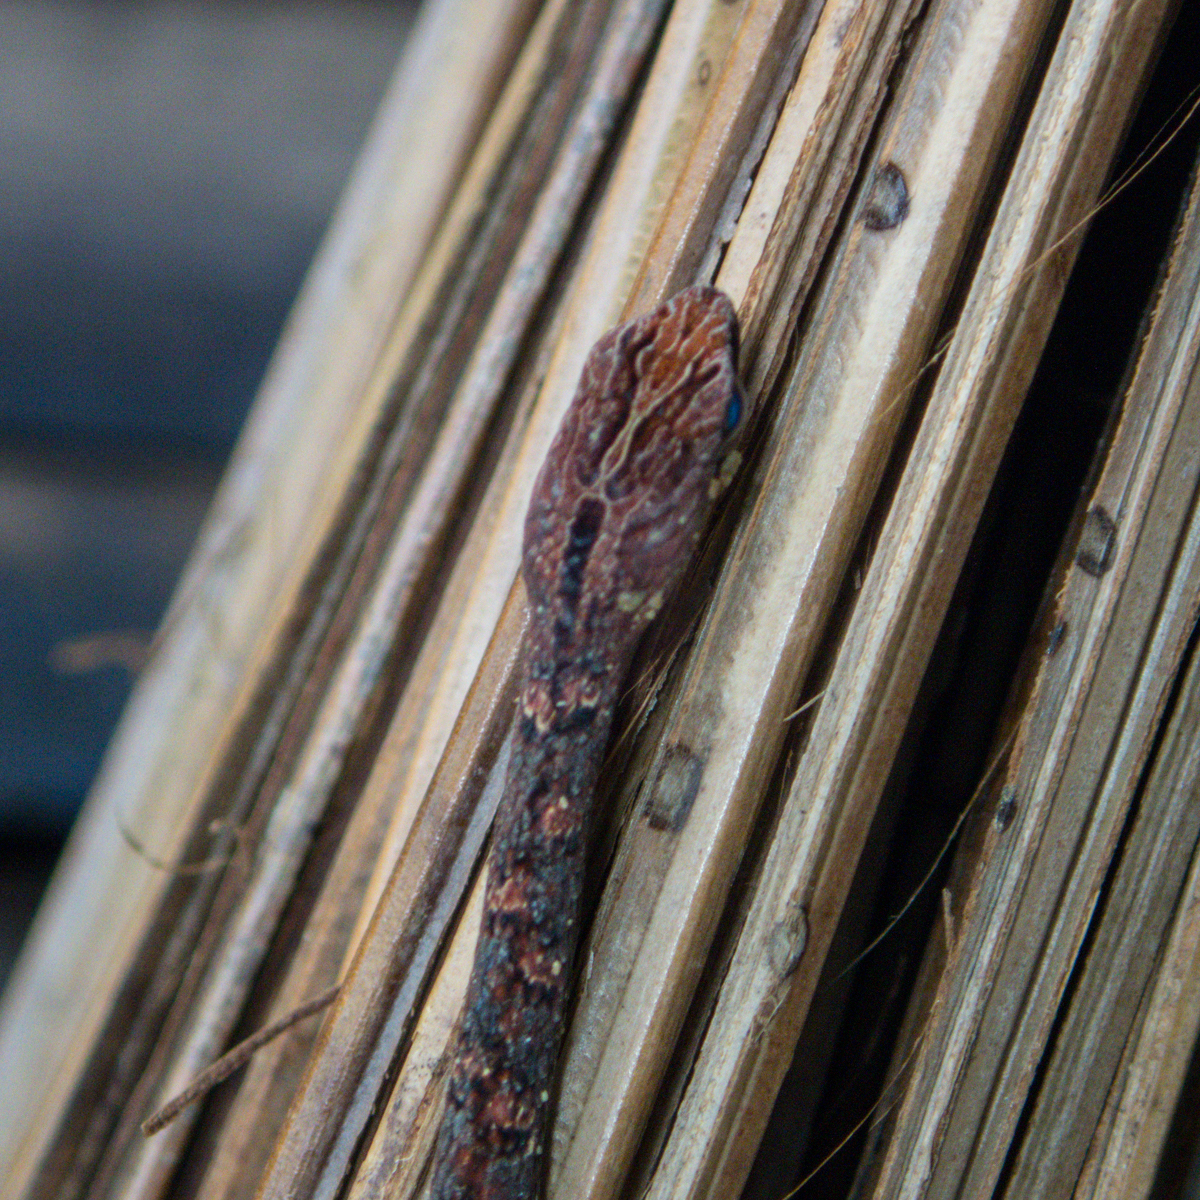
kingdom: Animalia
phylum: Chordata
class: Squamata
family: Pseudaspididae
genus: Psammodynastes
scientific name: Psammodynastes pulverulentus
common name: Common mock viper
